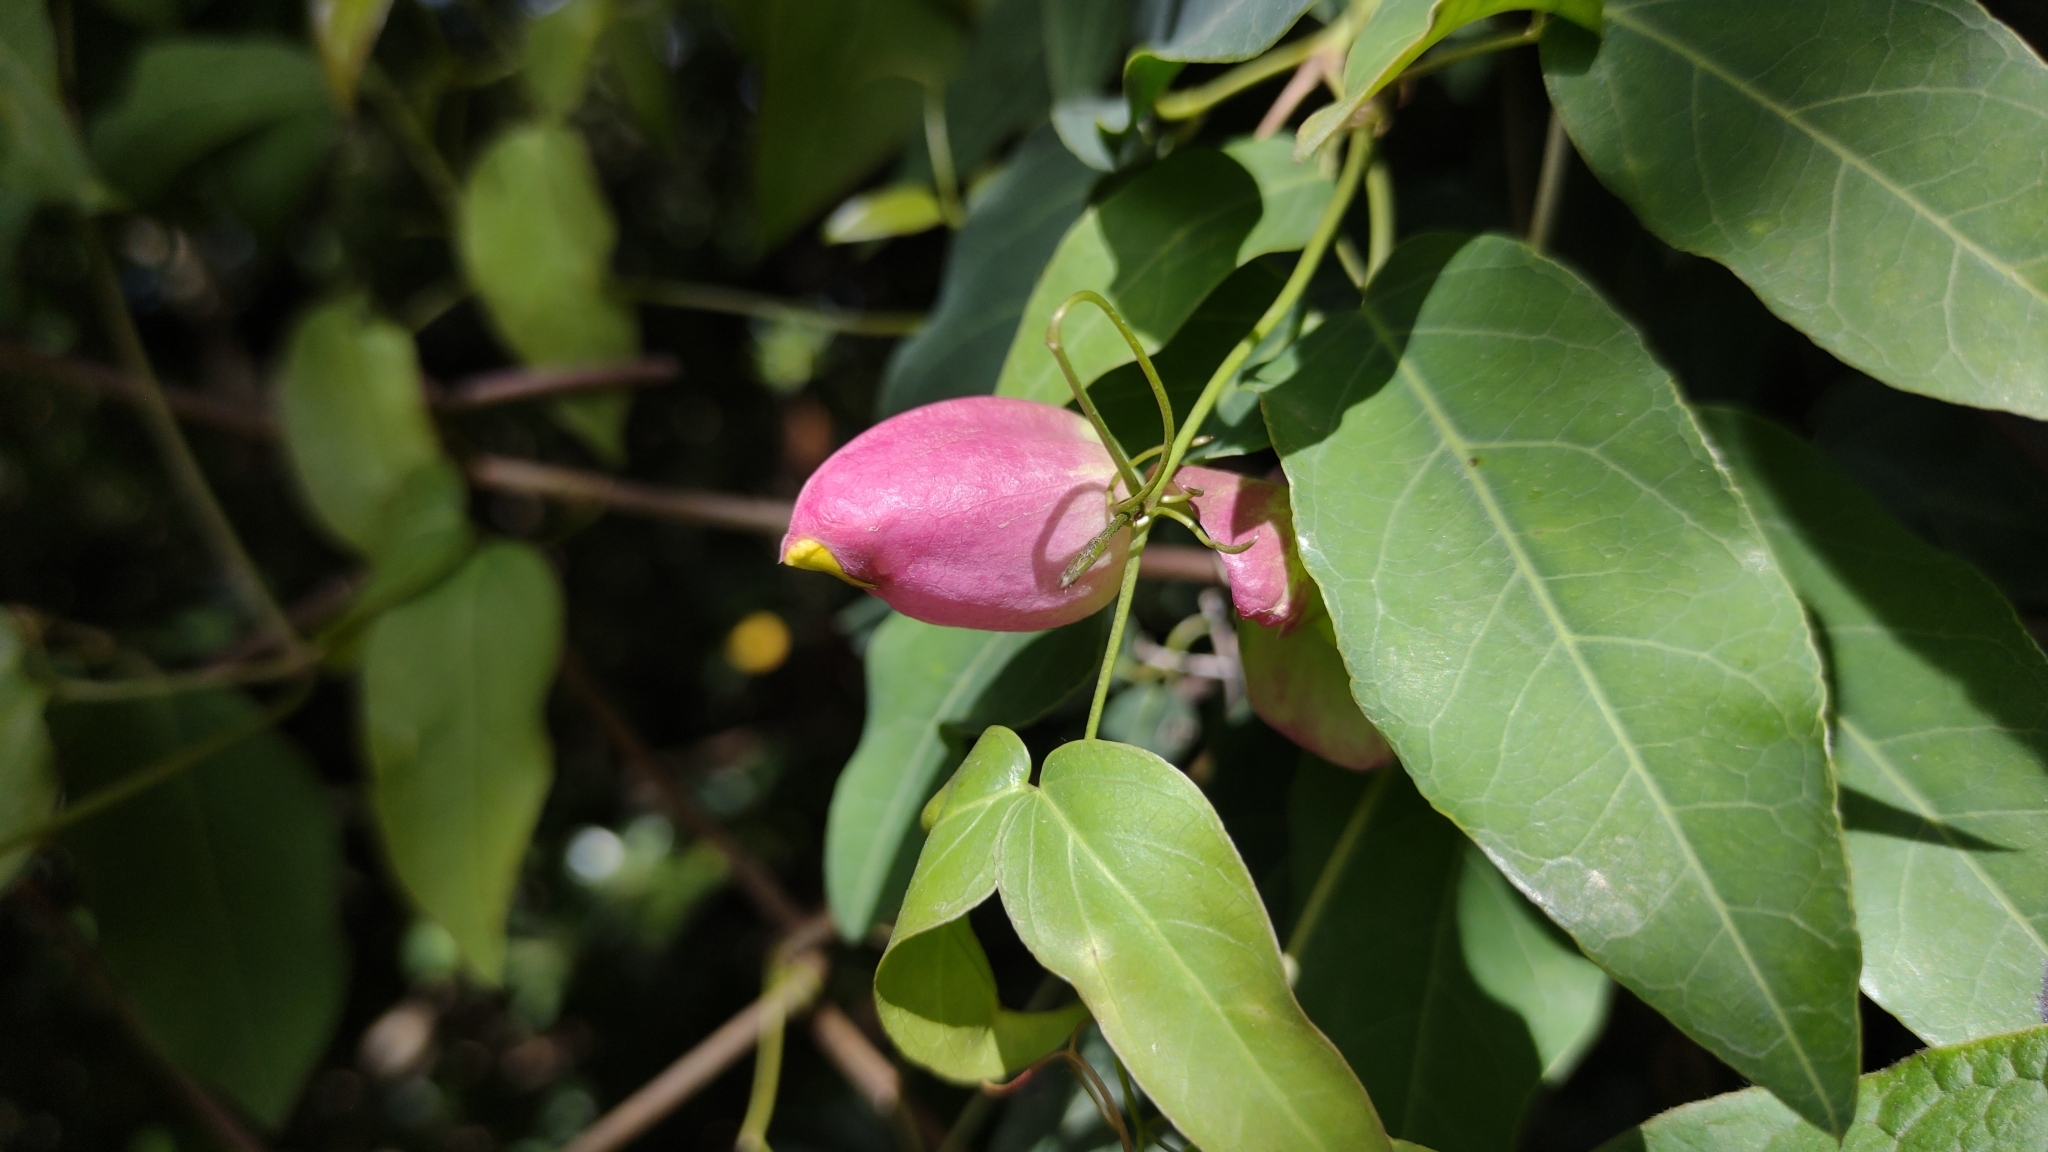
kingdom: Plantae
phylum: Tracheophyta
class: Magnoliopsida
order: Lamiales
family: Bignoniaceae
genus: Dolichandra
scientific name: Dolichandra cynanchoides
